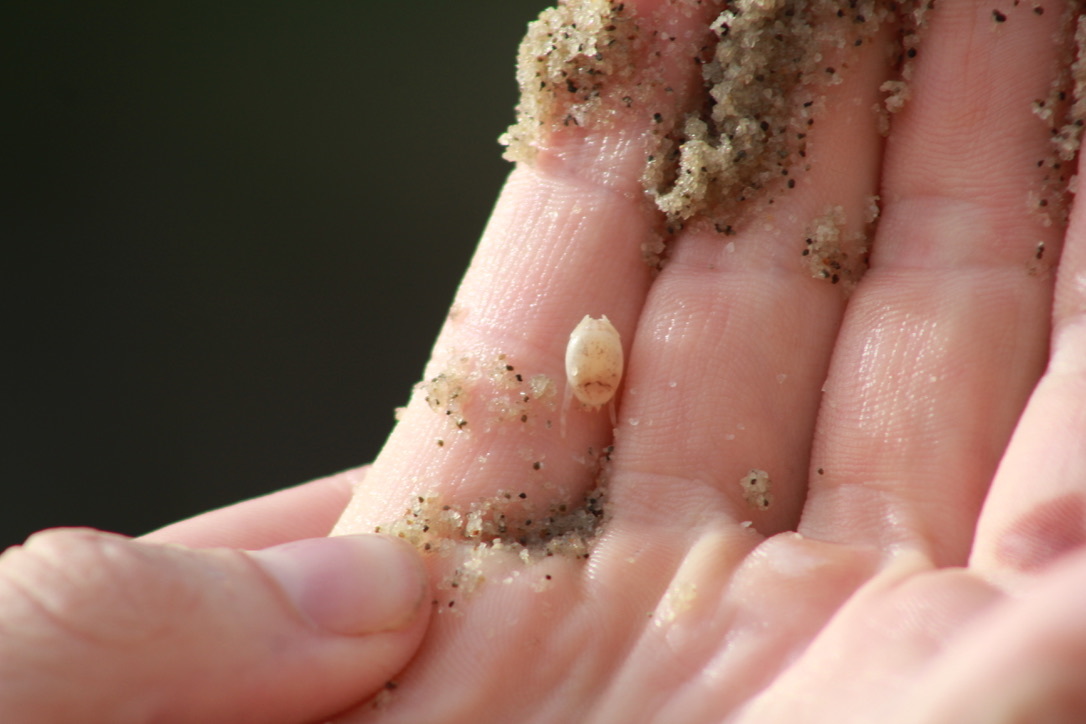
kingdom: Animalia
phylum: Arthropoda
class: Malacostraca
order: Decapoda
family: Hippidae
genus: Hippa
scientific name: Hippa testudinaria
